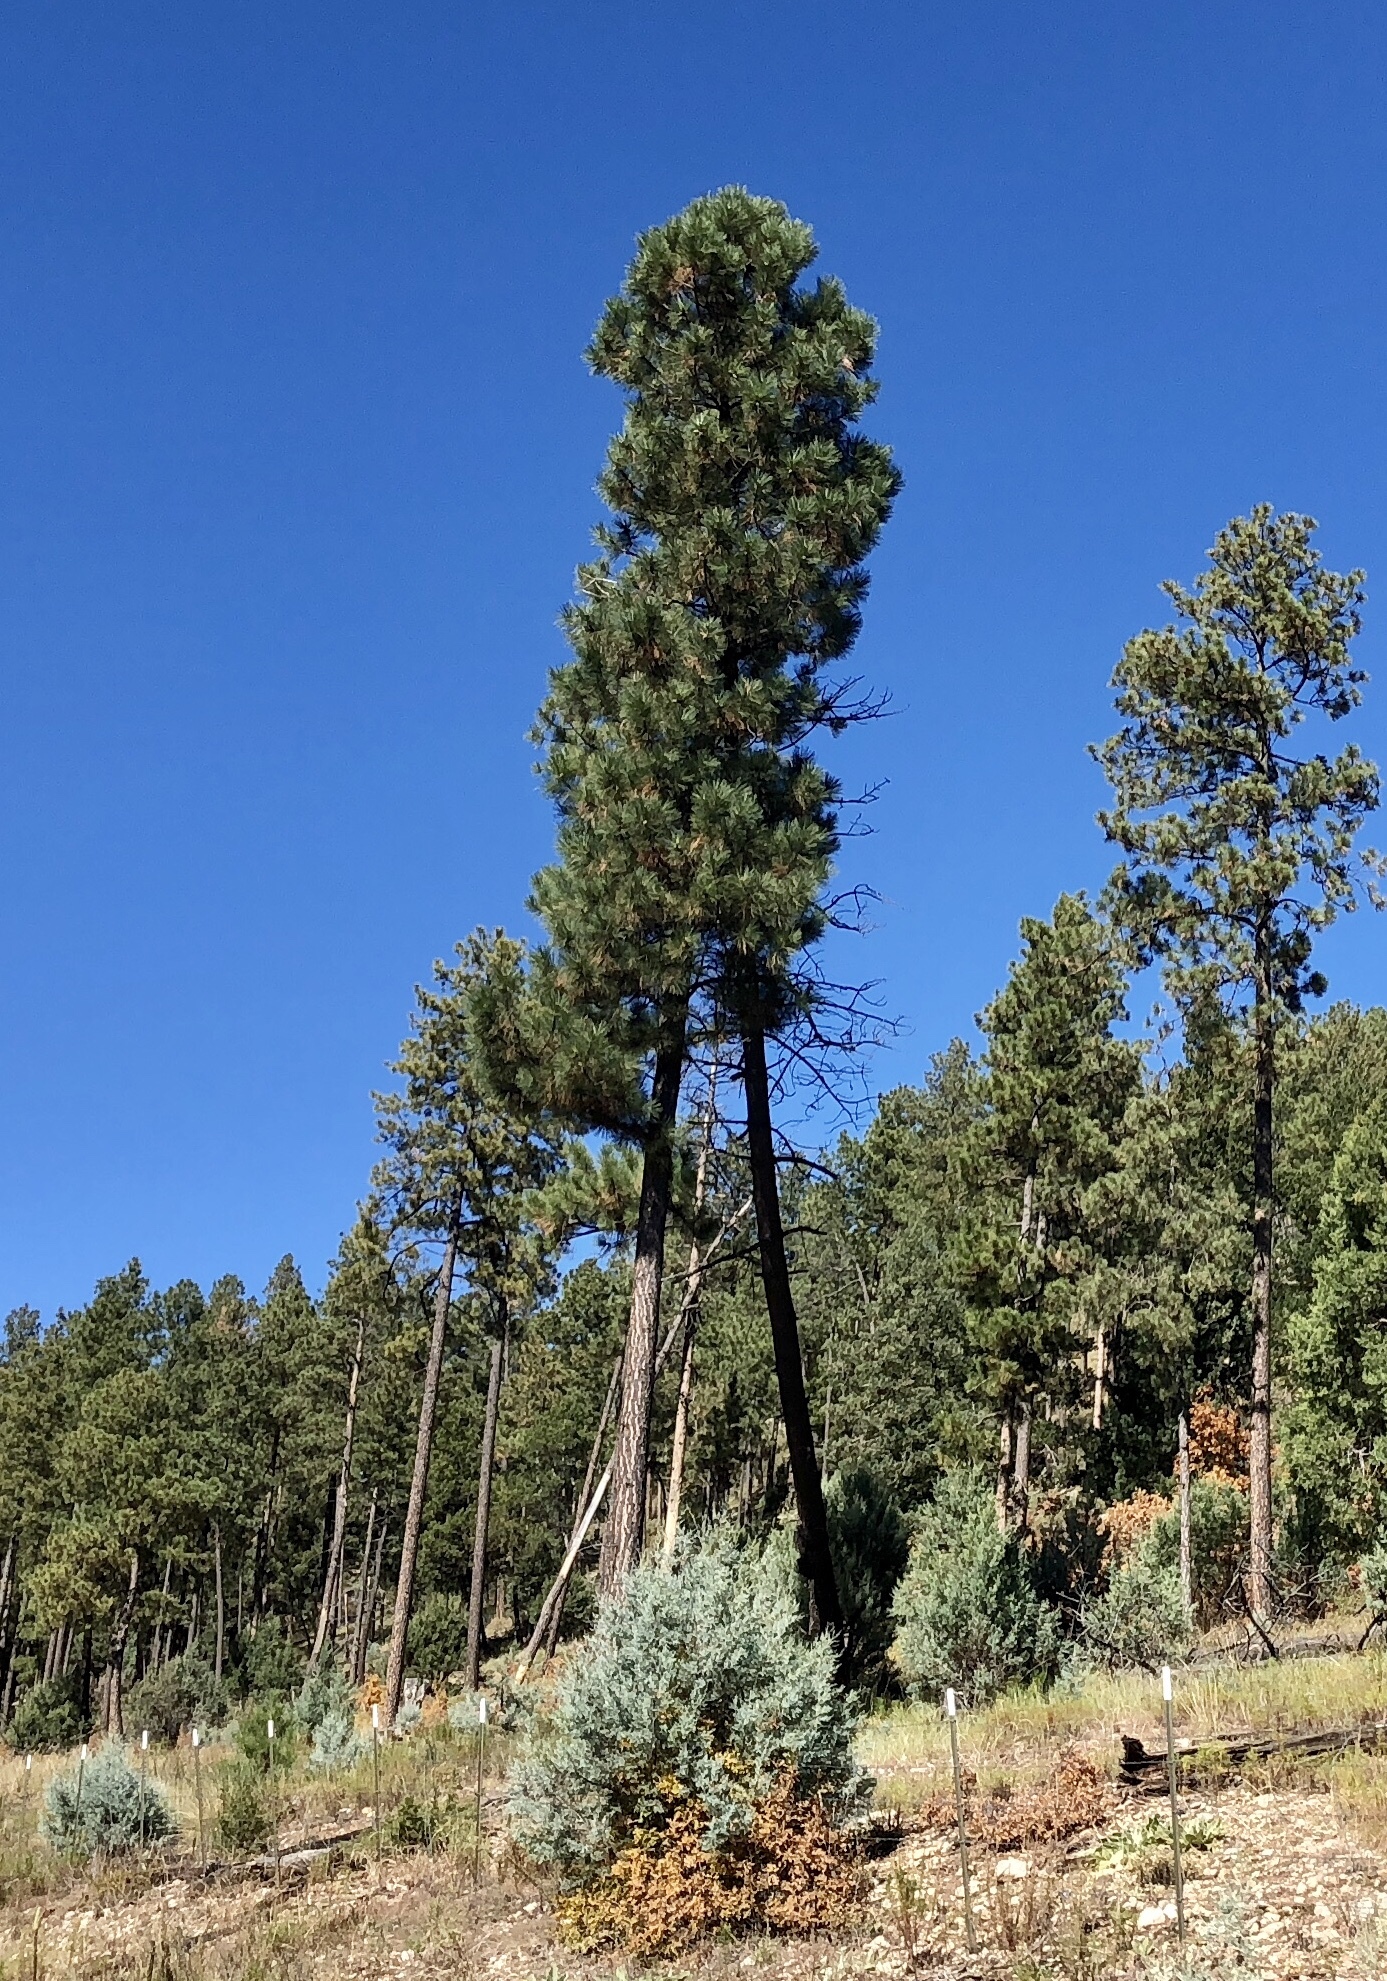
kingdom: Plantae
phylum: Tracheophyta
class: Pinopsida
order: Pinales
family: Pinaceae
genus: Pinus
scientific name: Pinus ponderosa
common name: Western yellow-pine
